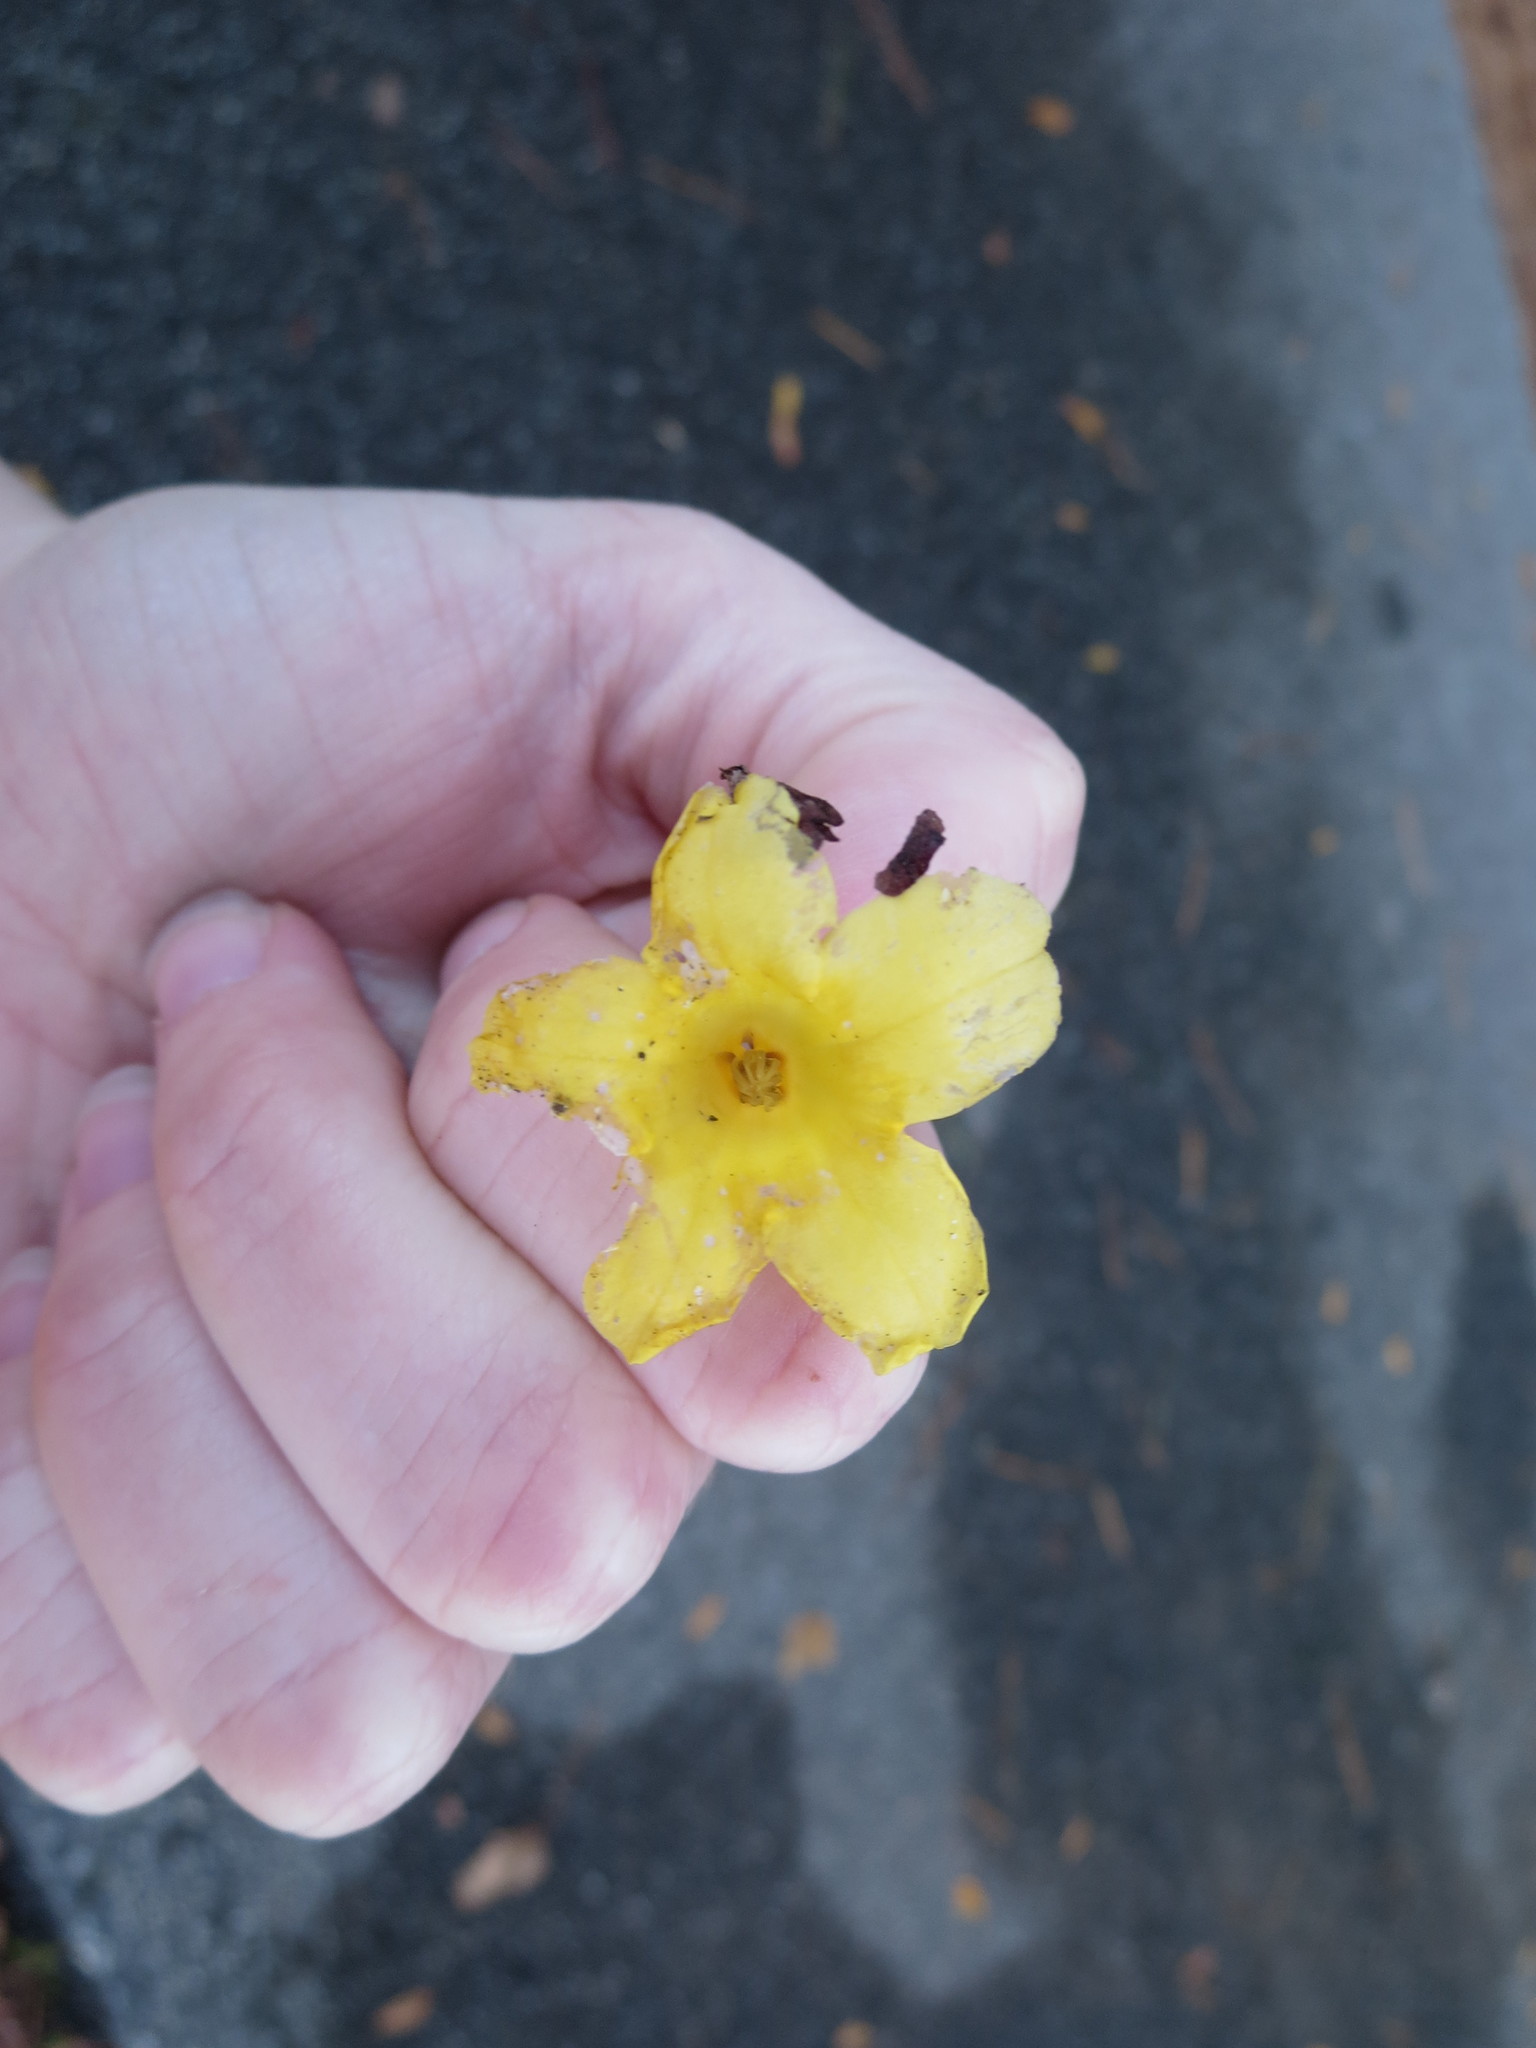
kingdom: Plantae
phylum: Tracheophyta
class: Magnoliopsida
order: Gentianales
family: Gelsemiaceae
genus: Gelsemium
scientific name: Gelsemium sempervirens
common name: Carolina-jasmine
